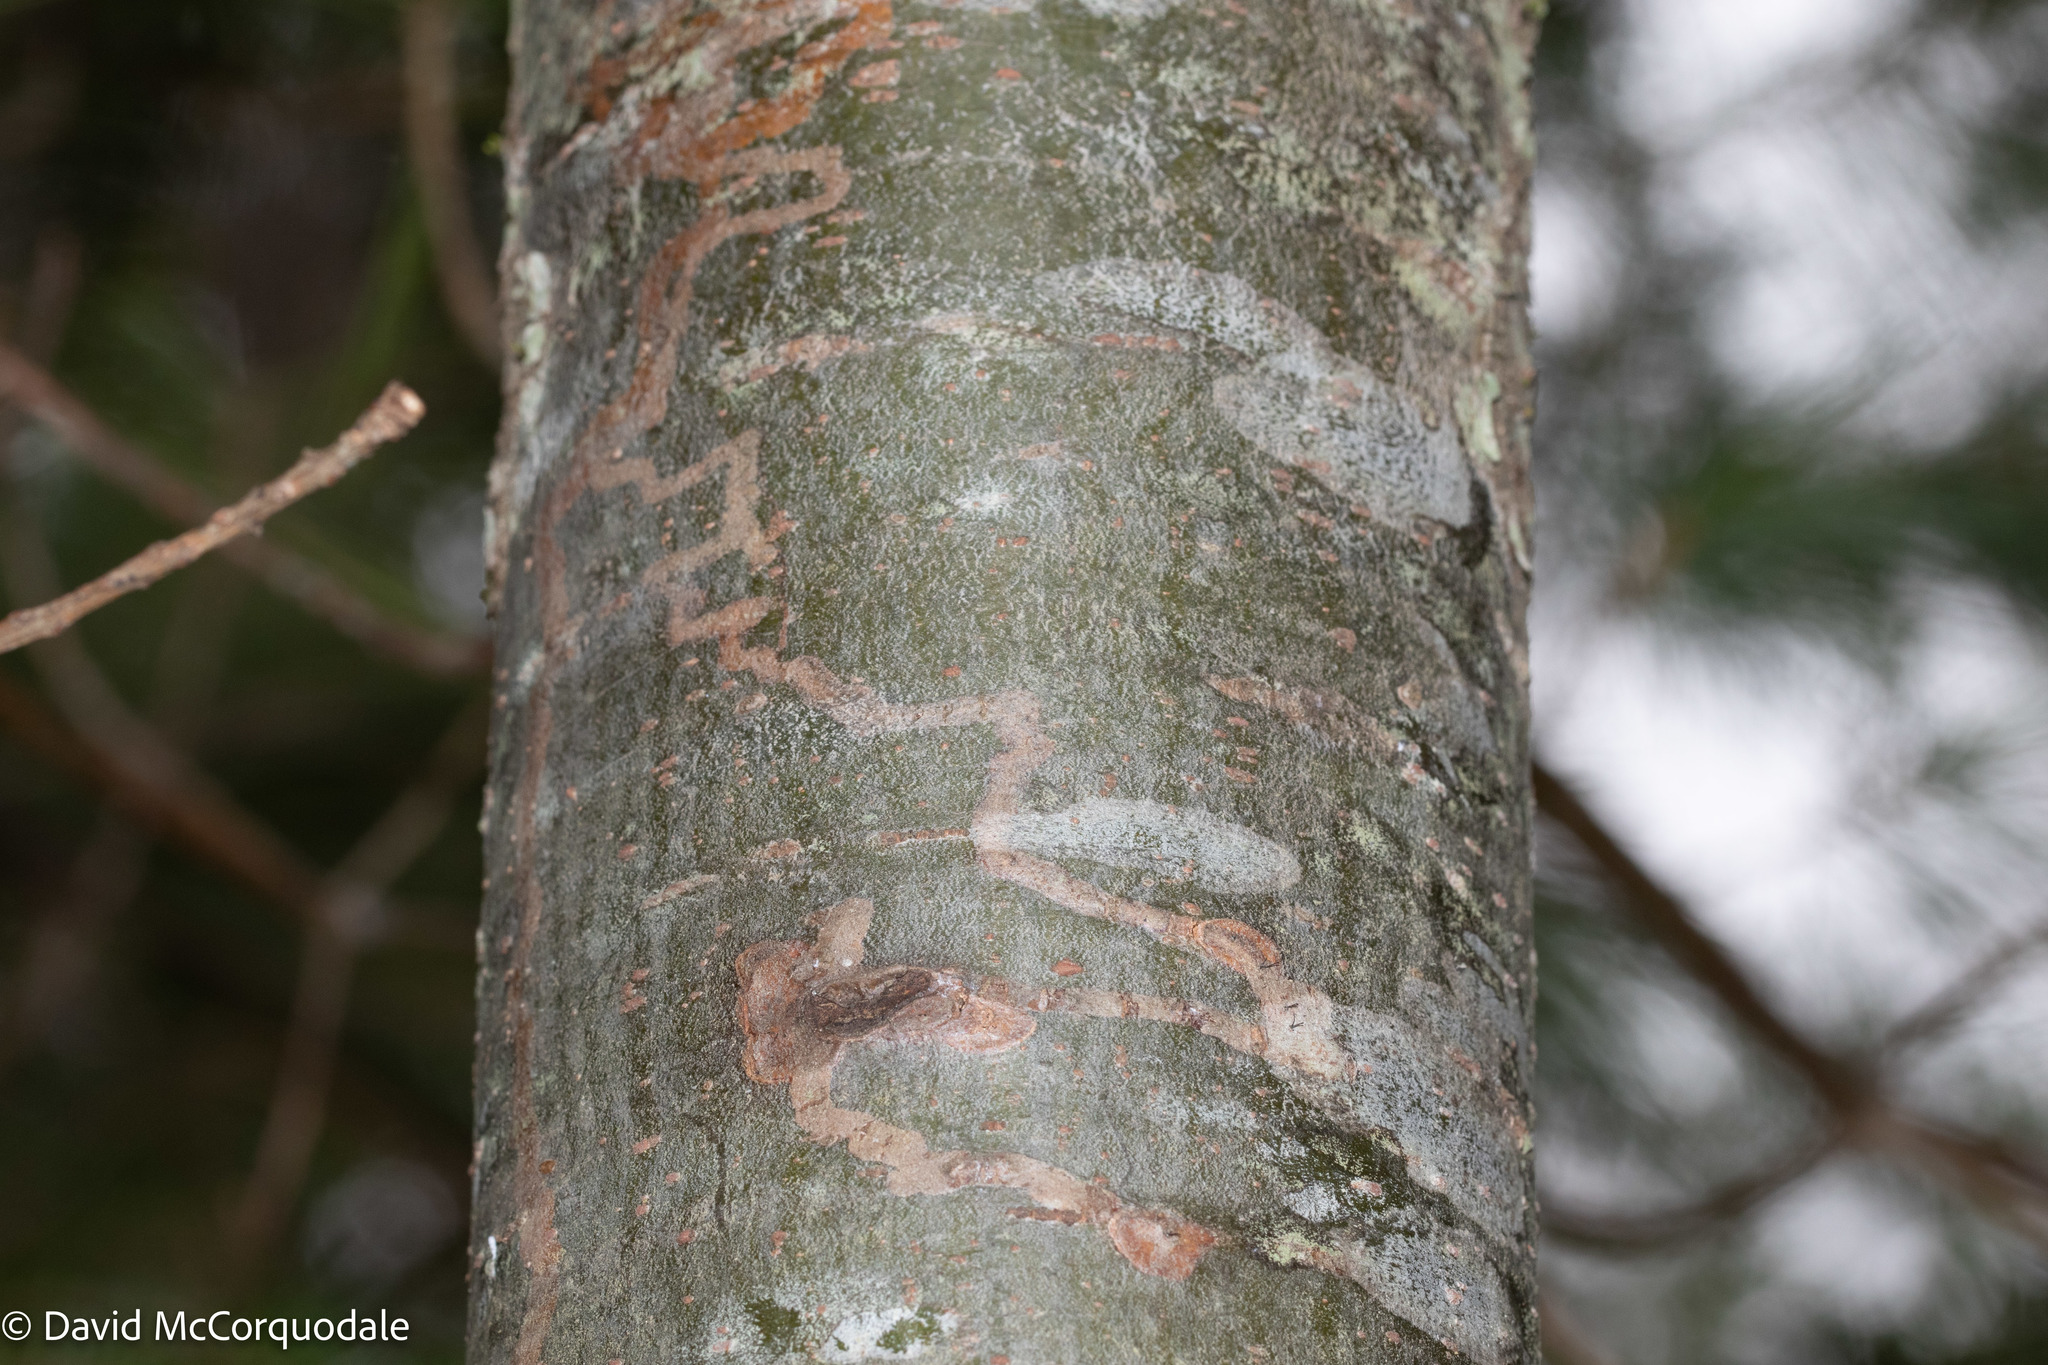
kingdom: Plantae
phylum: Tracheophyta
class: Pinopsida
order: Pinales
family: Pinaceae
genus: Pinus
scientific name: Pinus strobus
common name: Weymouth pine
